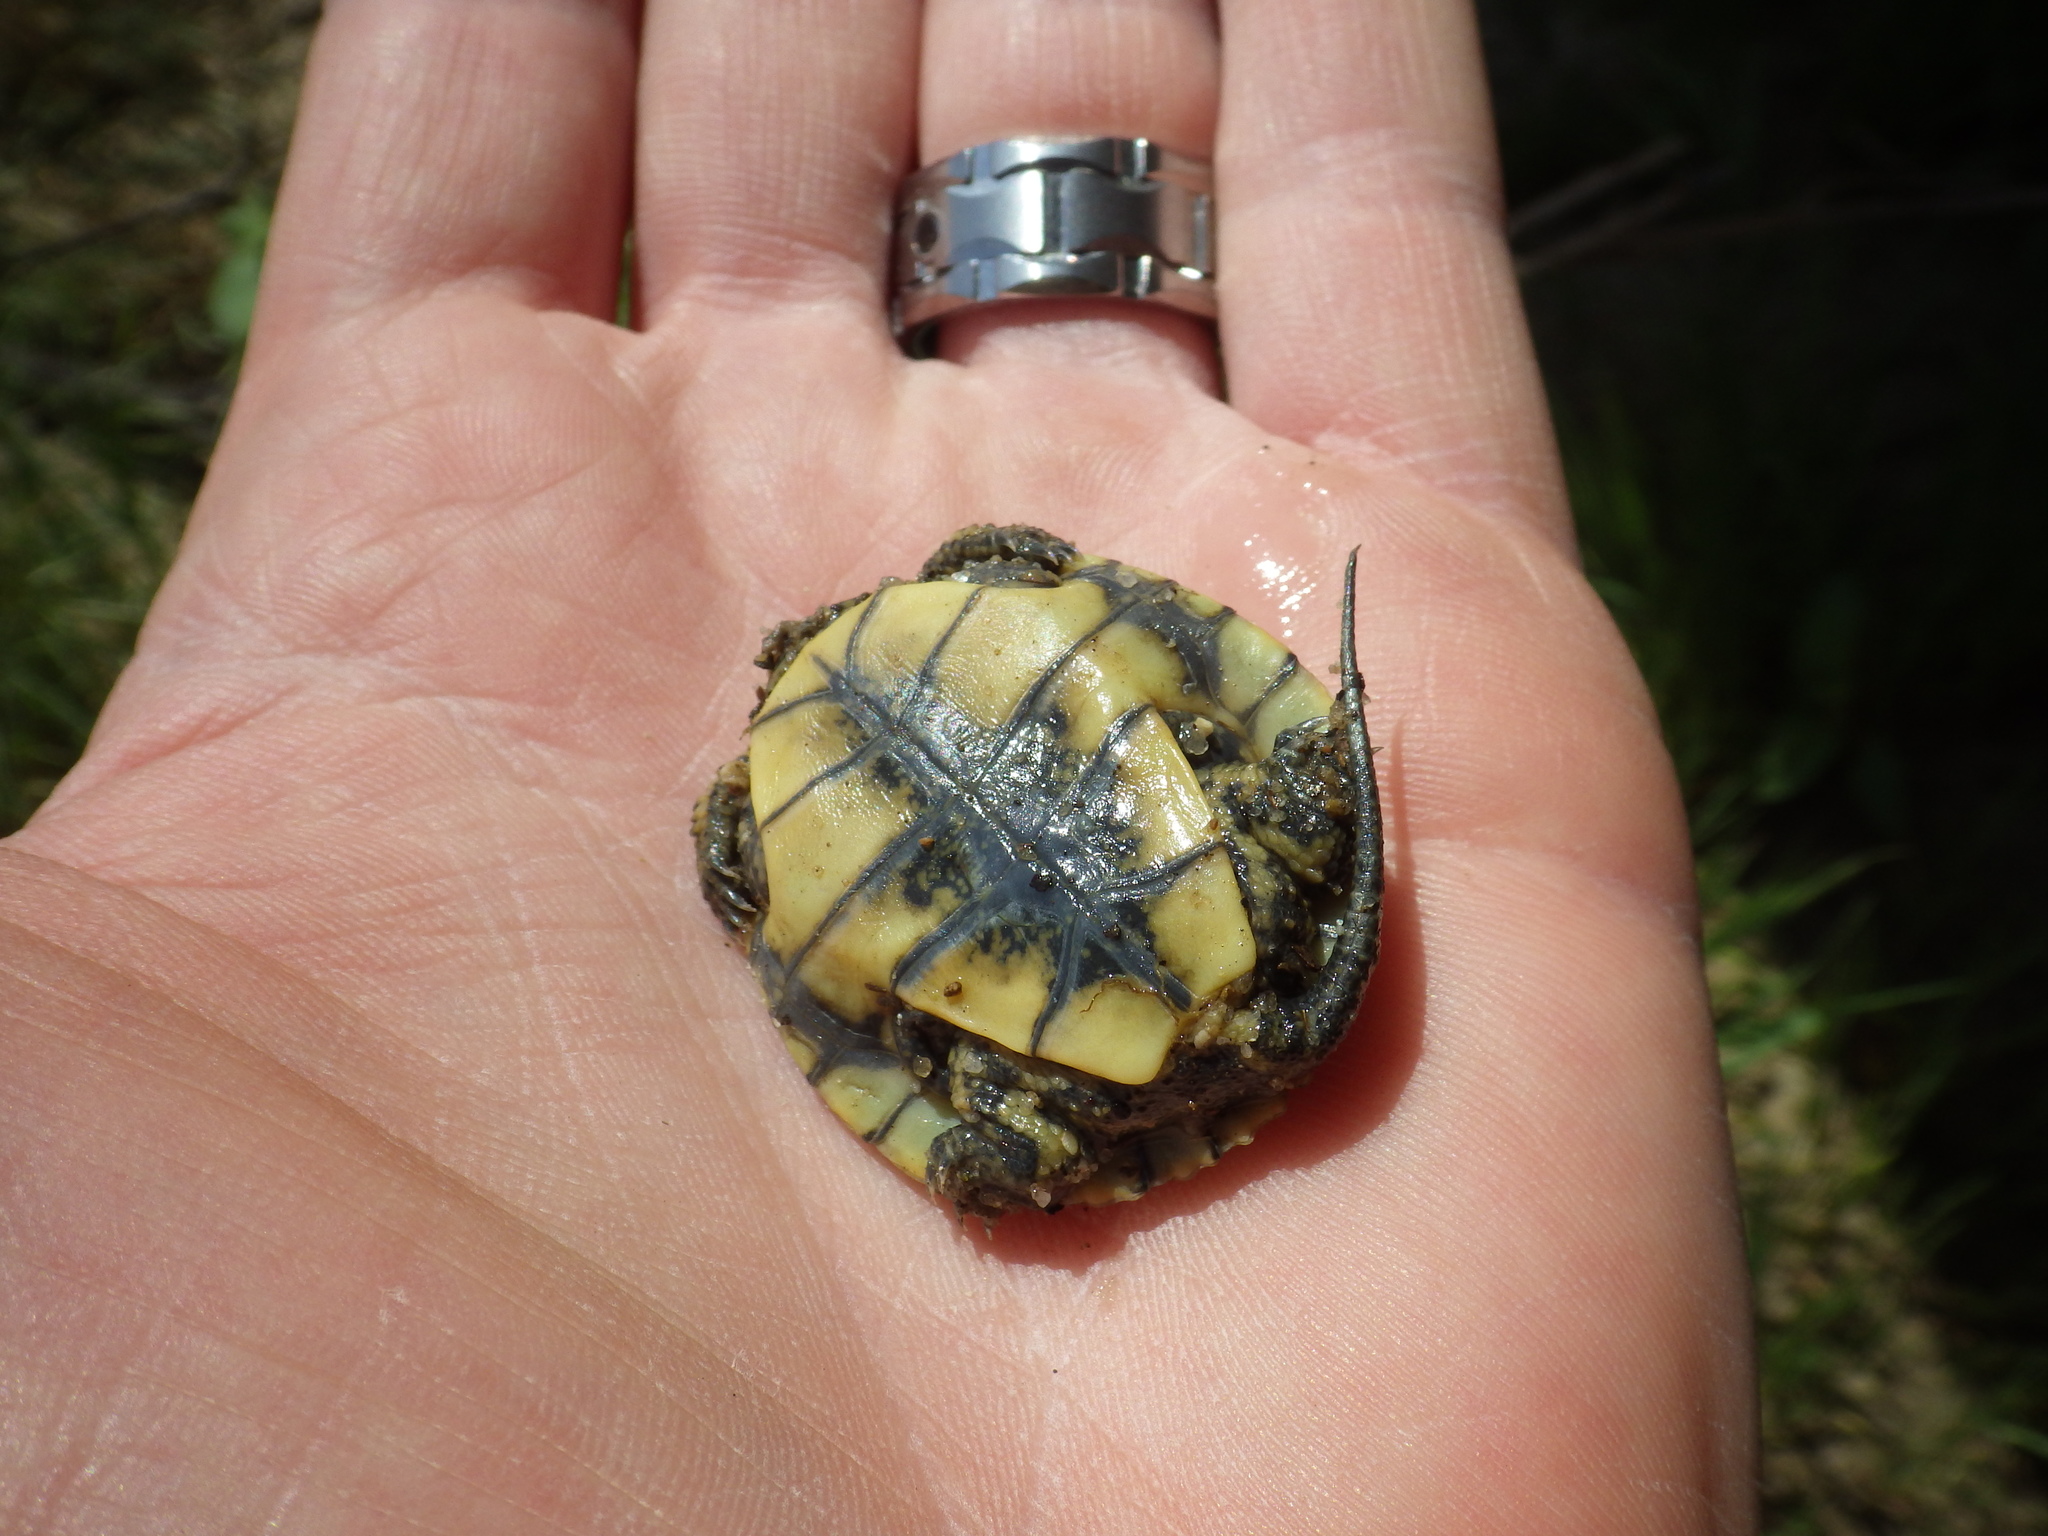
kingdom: Animalia
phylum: Chordata
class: Testudines
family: Emydidae
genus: Actinemys
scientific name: Actinemys marmorata
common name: Western pond turtle
